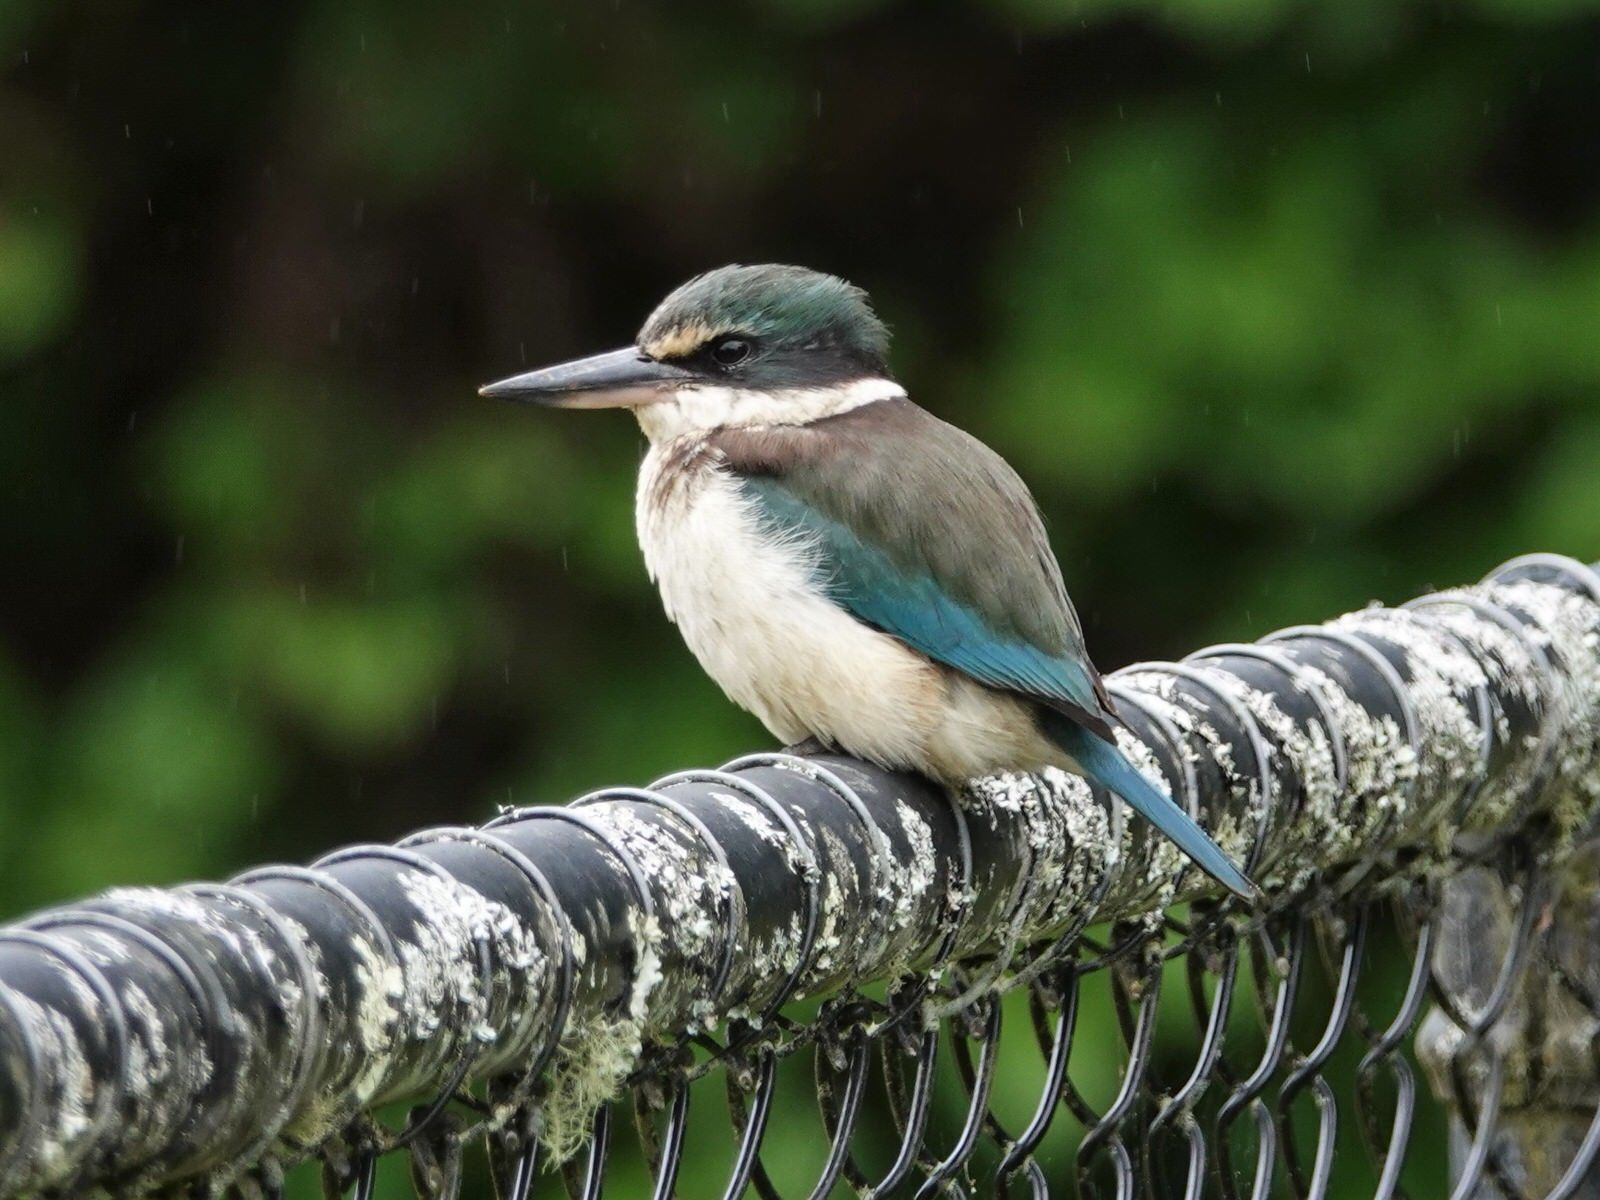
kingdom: Animalia
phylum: Chordata
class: Aves
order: Coraciiformes
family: Alcedinidae
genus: Todiramphus
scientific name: Todiramphus sanctus
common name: Sacred kingfisher
